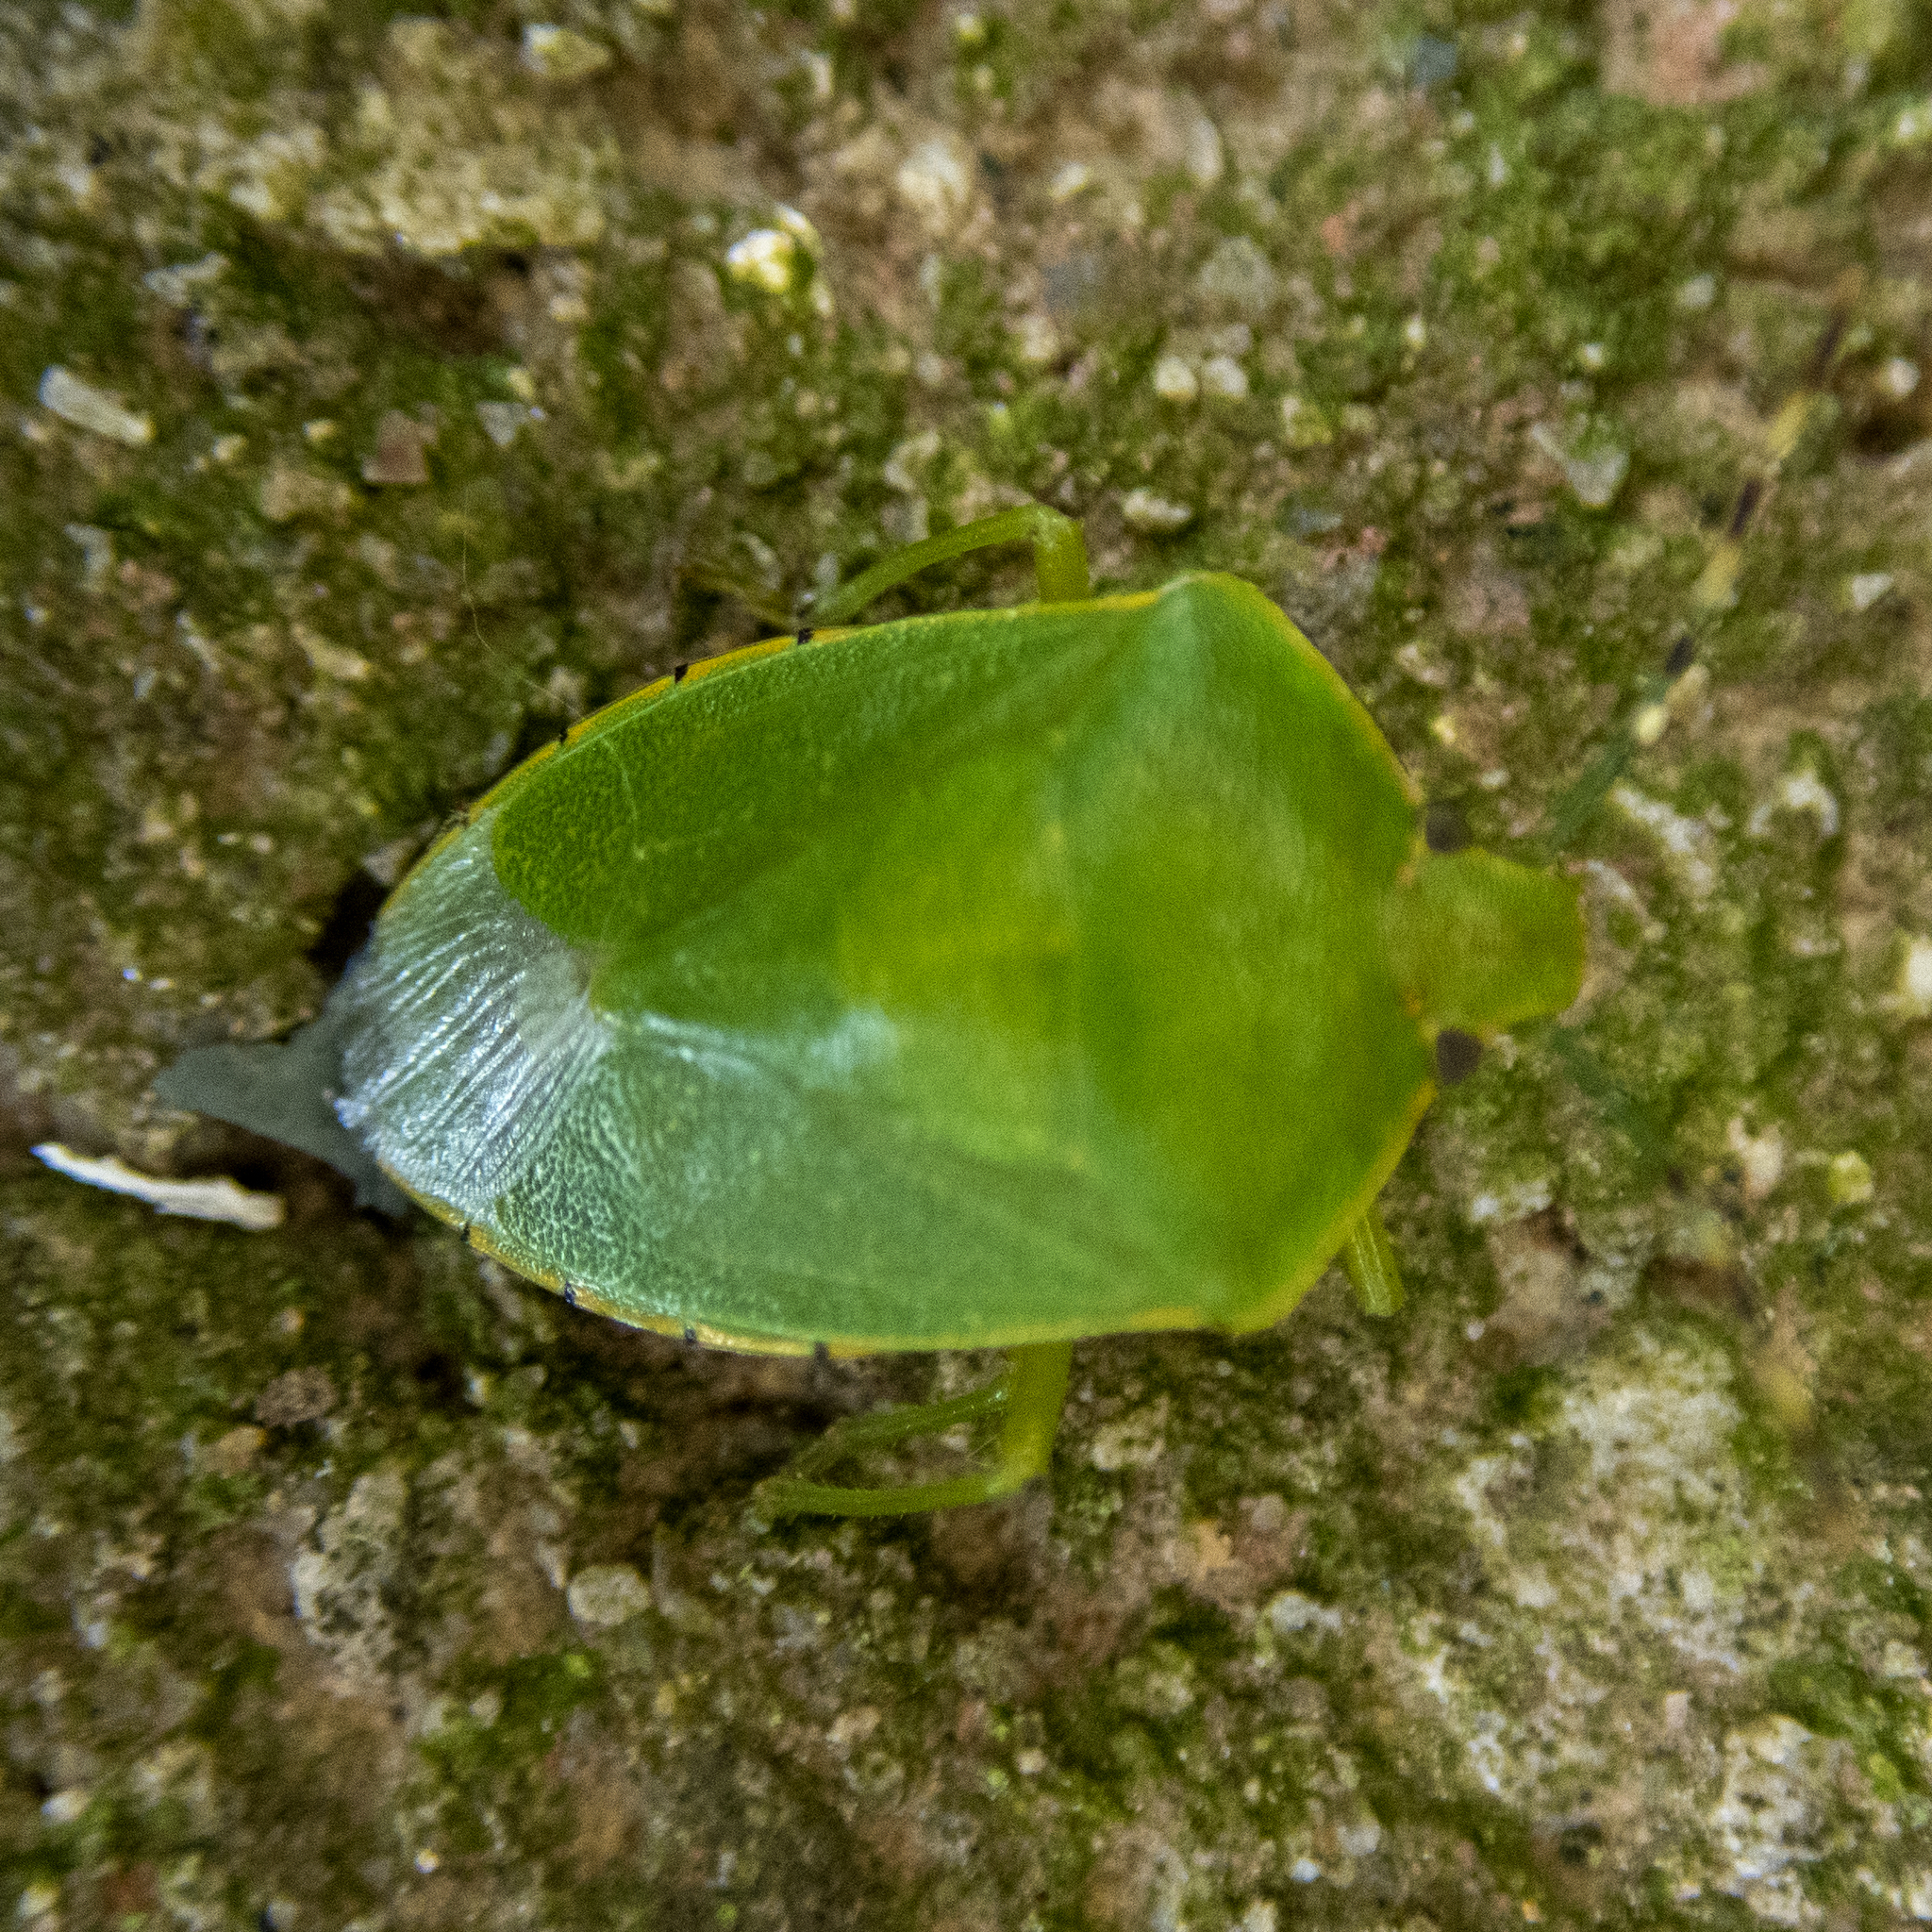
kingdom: Animalia
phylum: Arthropoda
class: Insecta
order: Hemiptera
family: Pentatomidae
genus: Chinavia
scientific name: Chinavia hilaris
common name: Green stink bug
